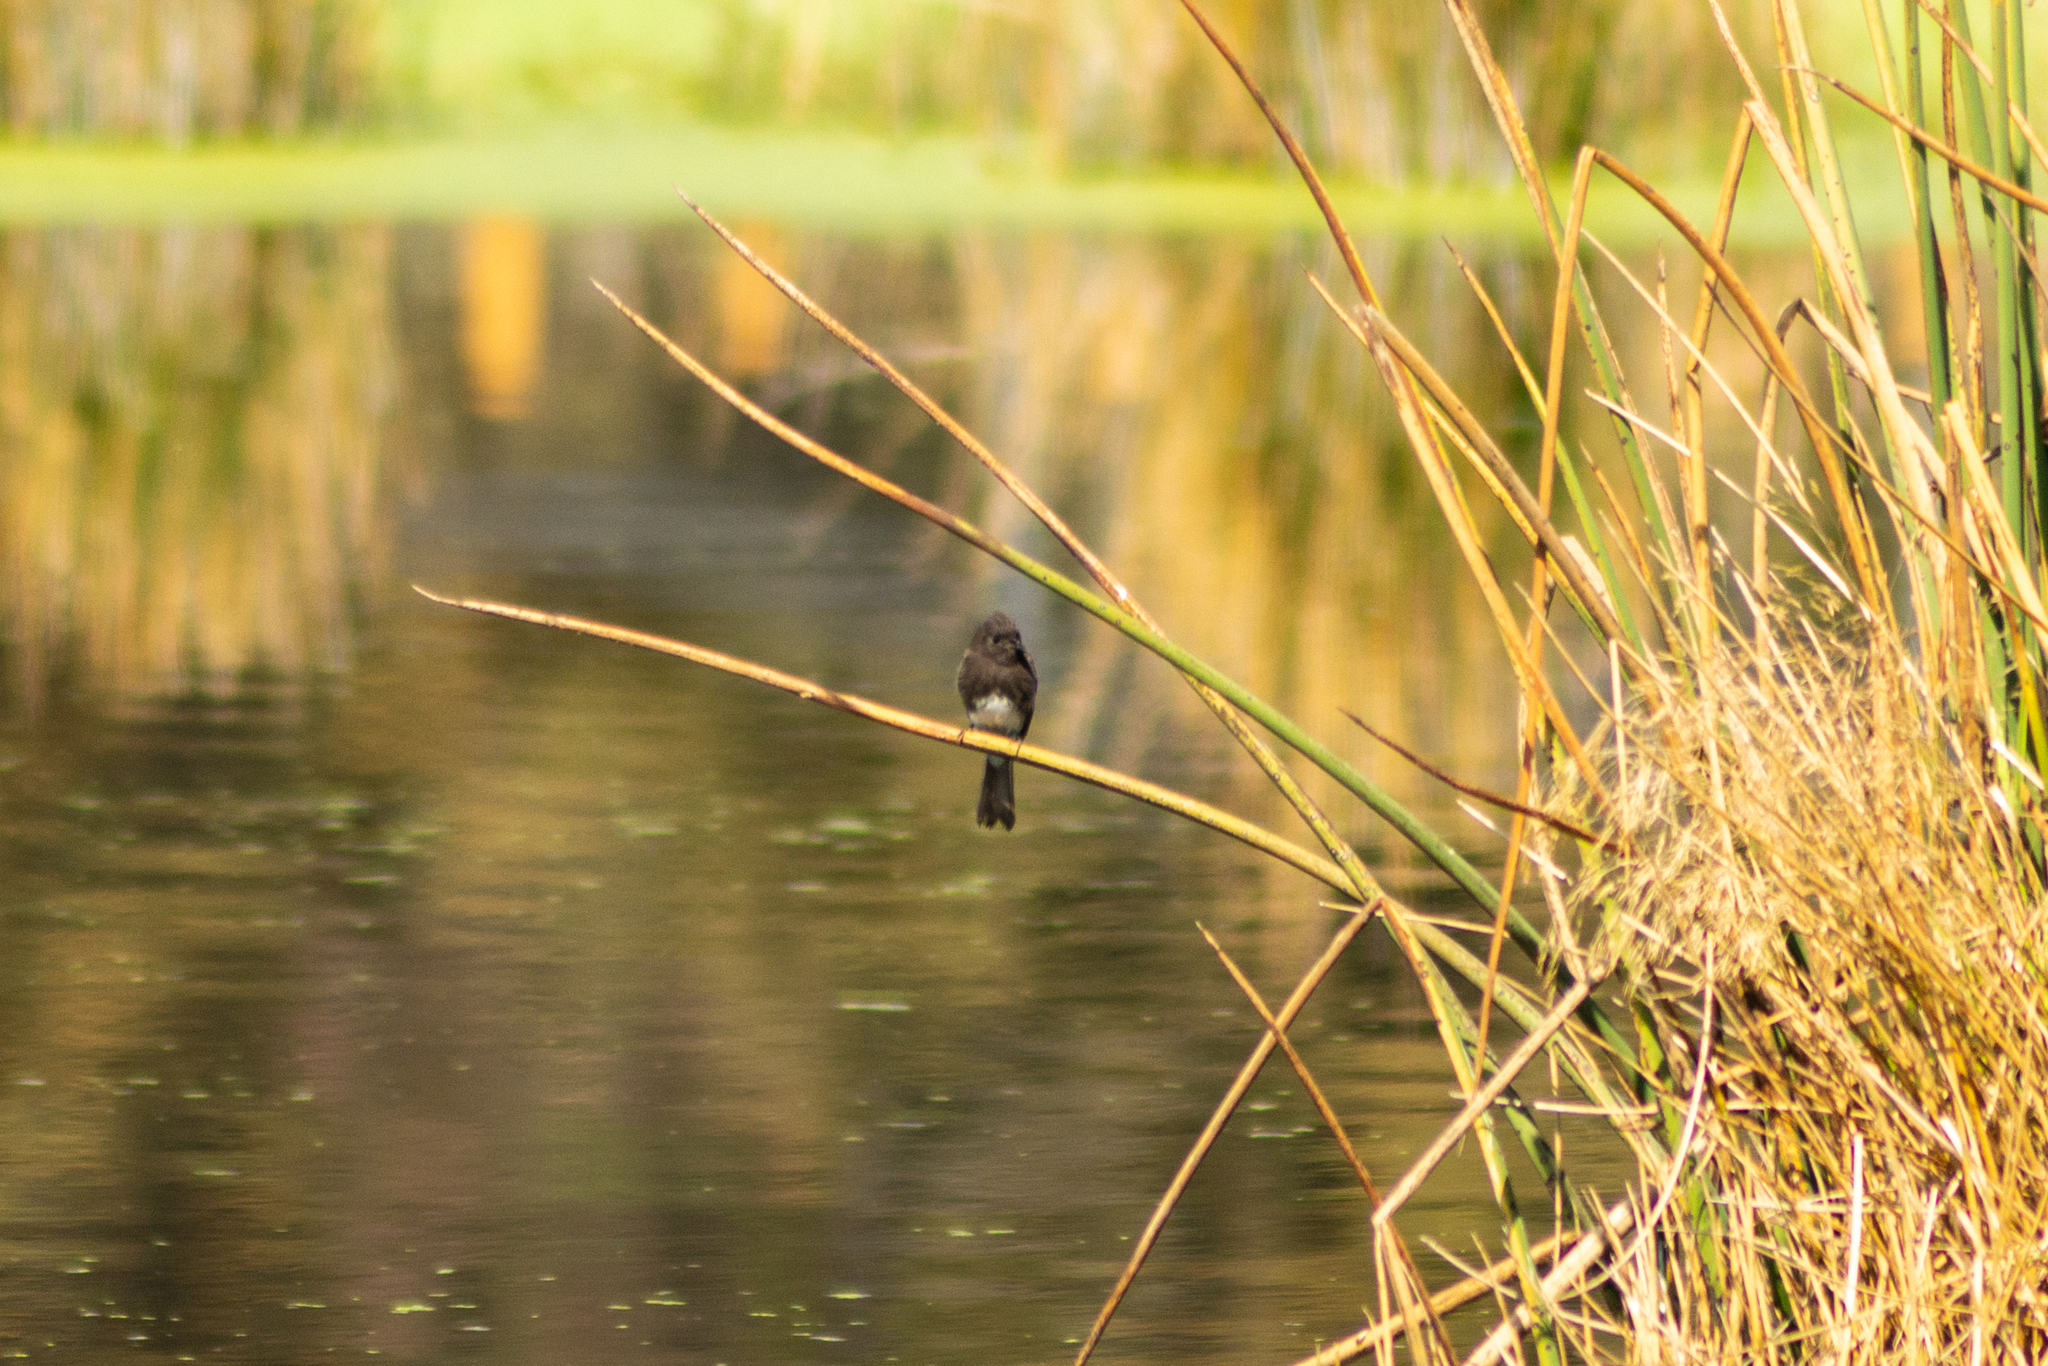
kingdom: Animalia
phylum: Chordata
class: Aves
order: Passeriformes
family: Tyrannidae
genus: Sayornis
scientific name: Sayornis nigricans
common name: Black phoebe
